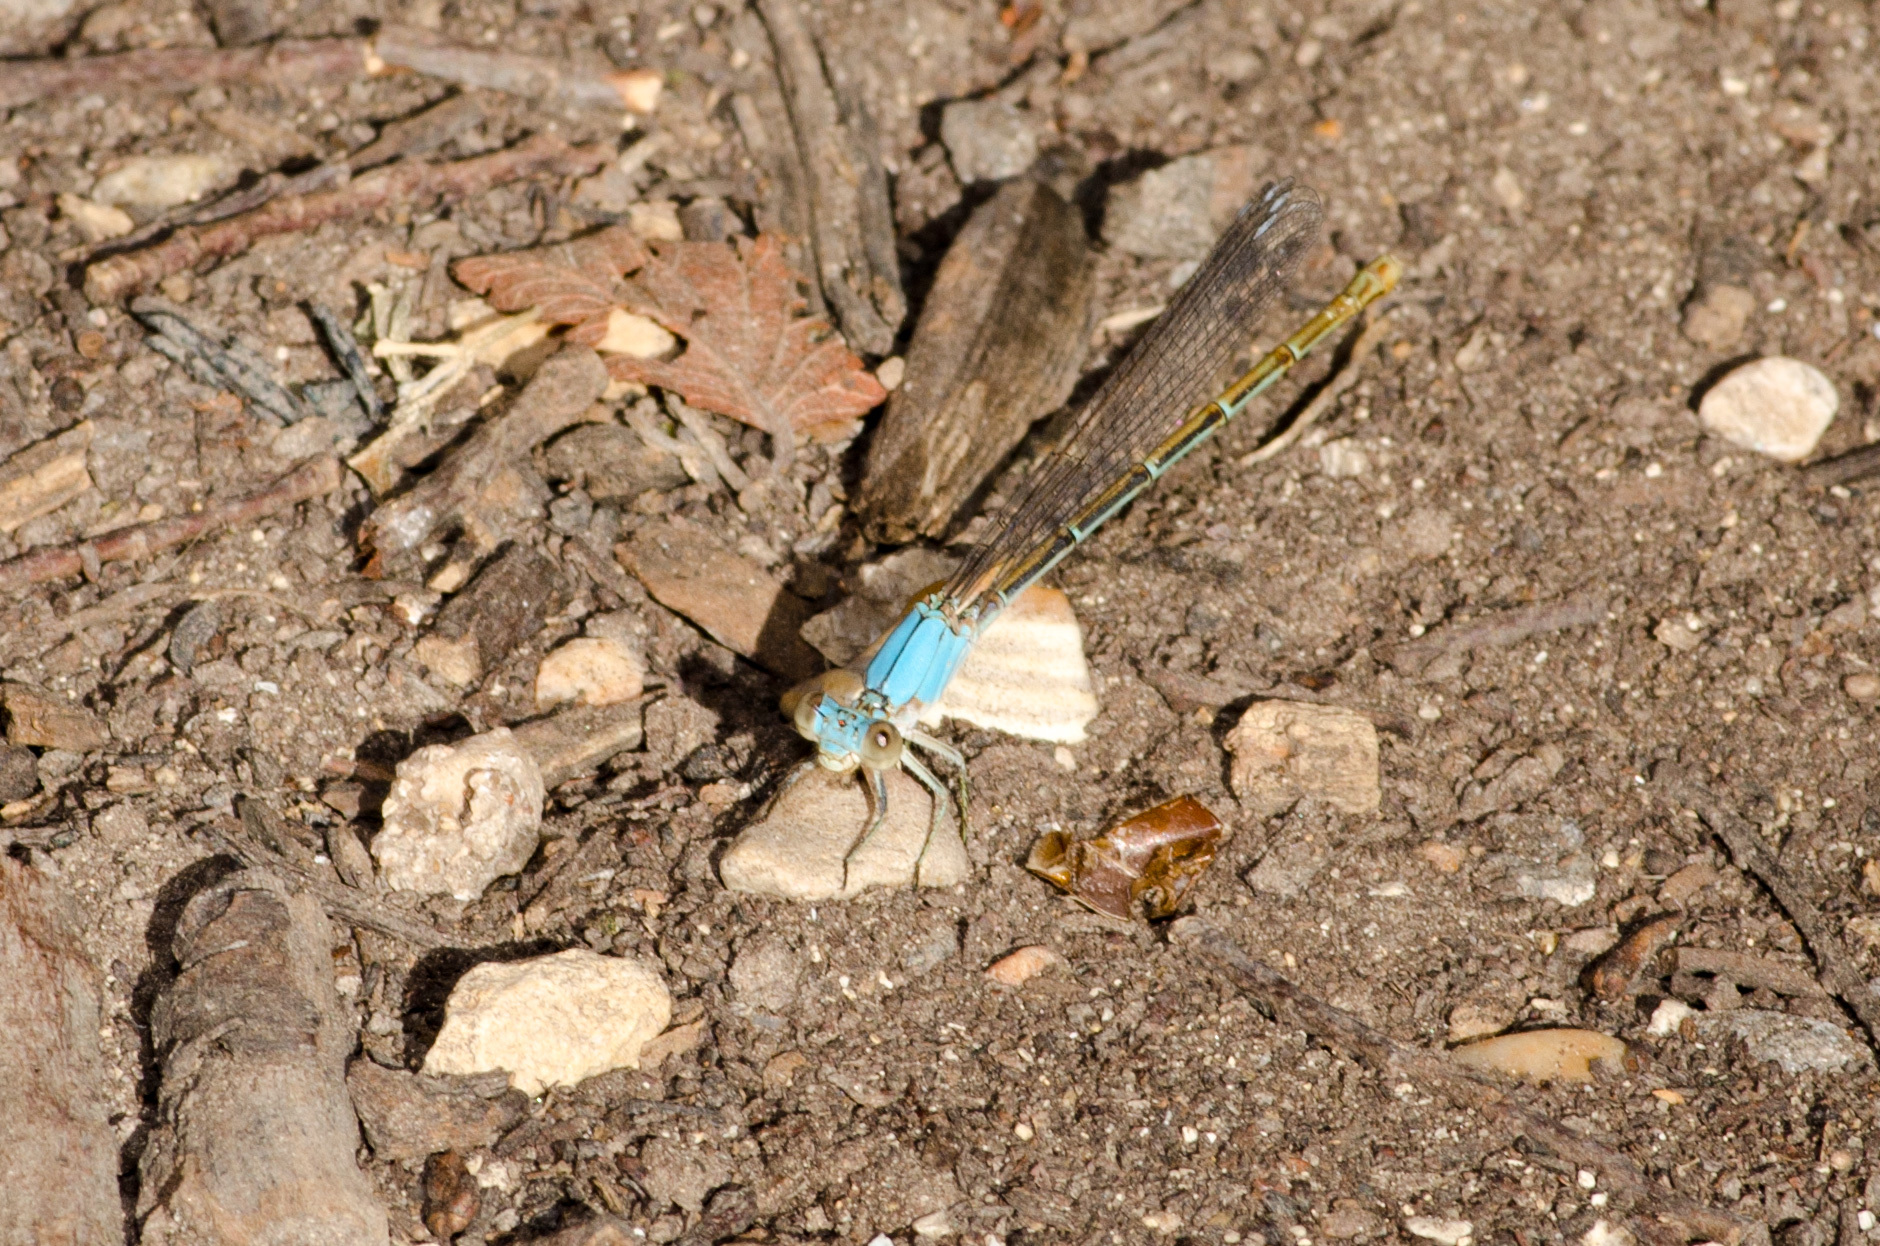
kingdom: Animalia
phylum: Arthropoda
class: Insecta
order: Odonata
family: Coenagrionidae
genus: Argia
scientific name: Argia moesta
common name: Powdered dancer
